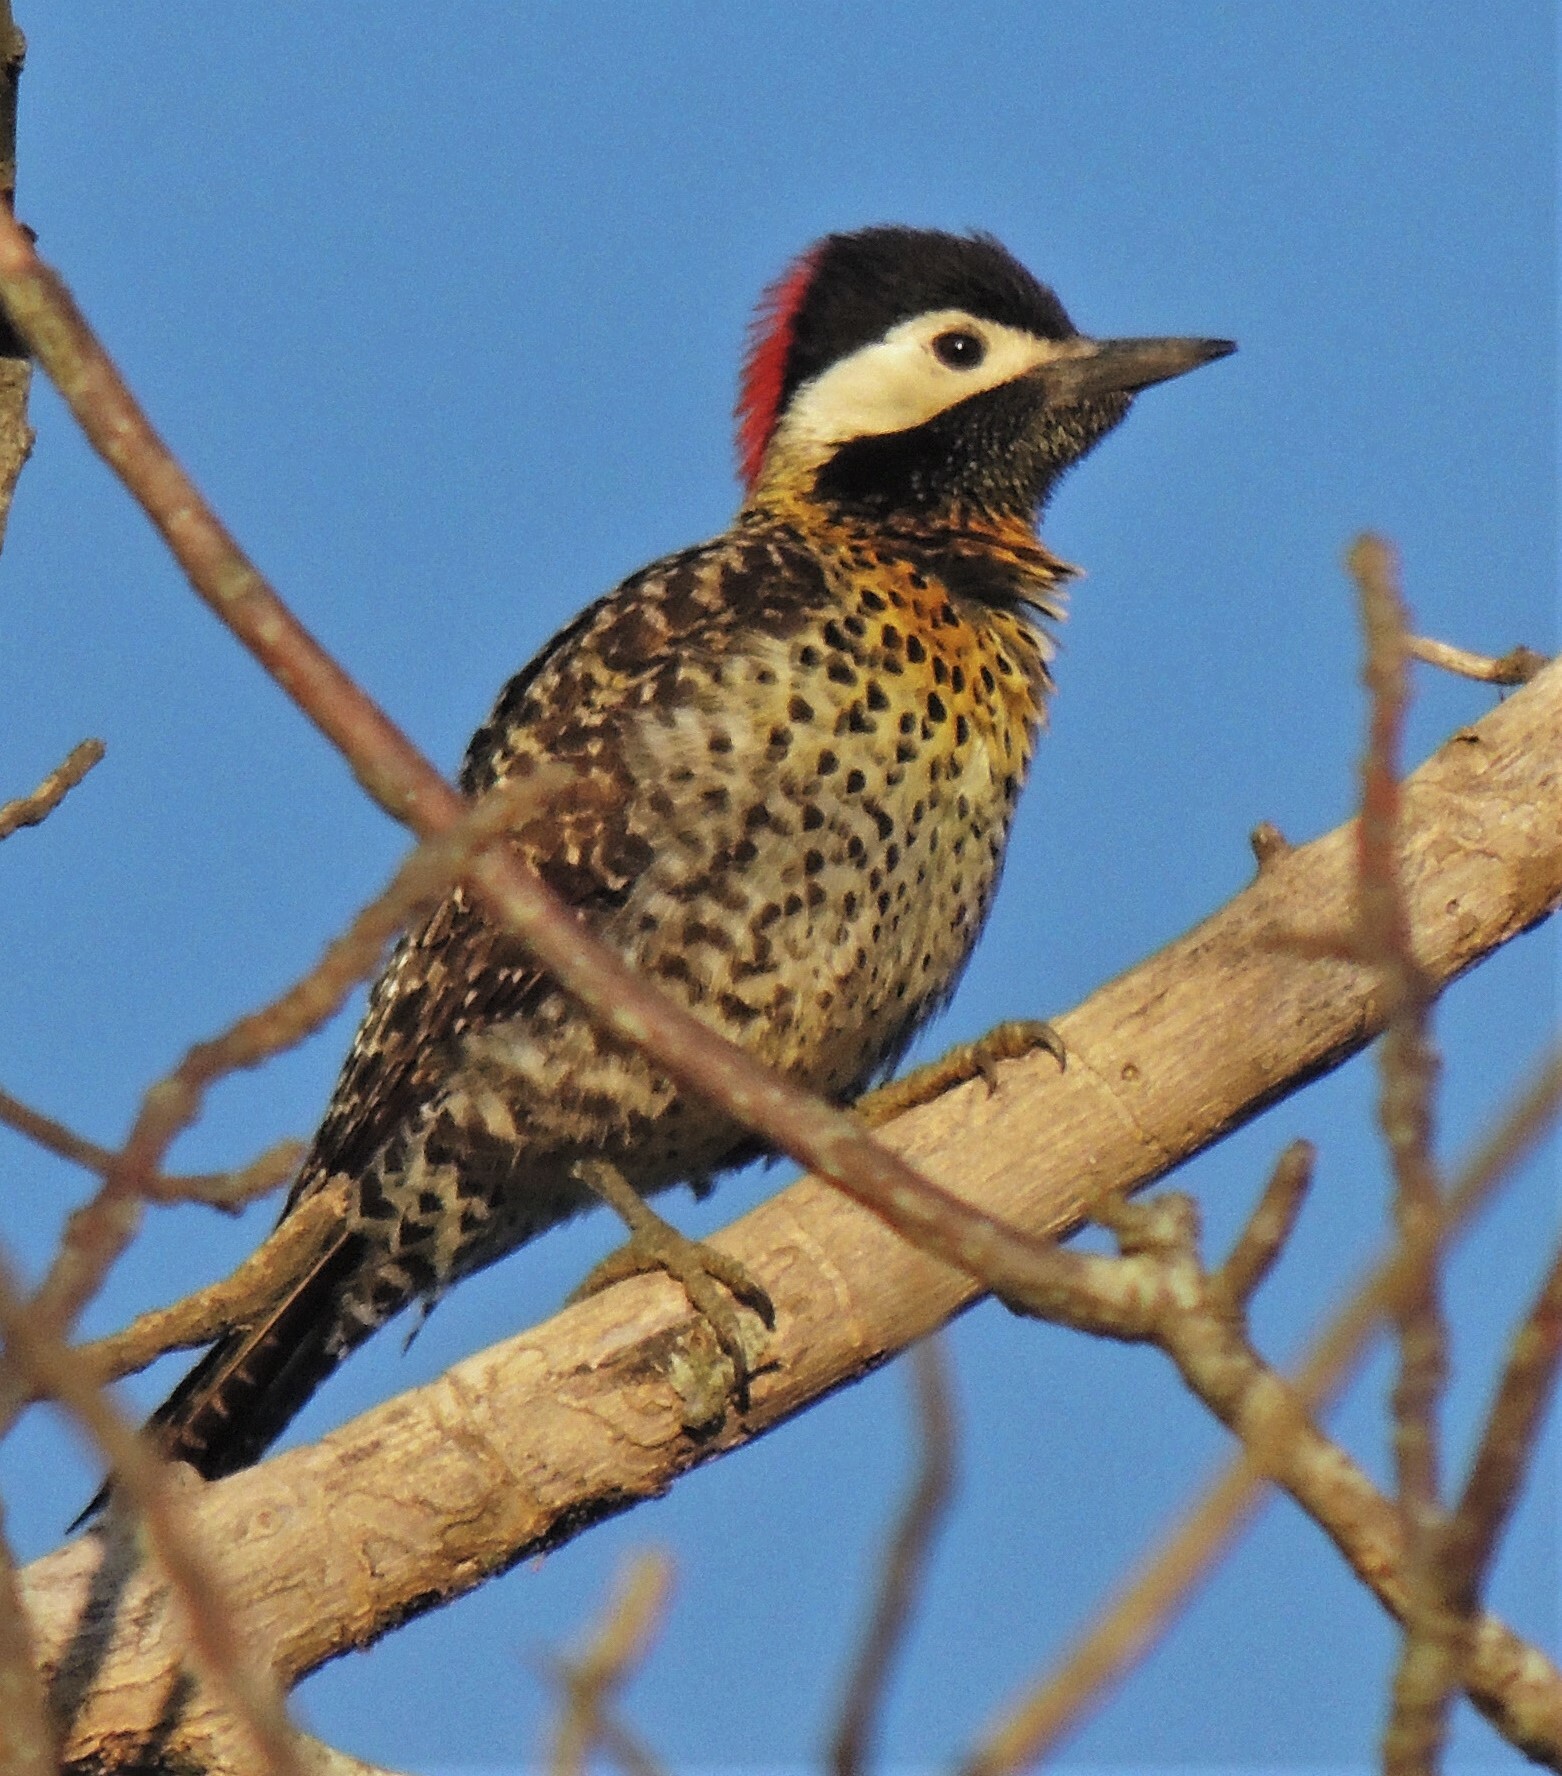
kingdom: Animalia
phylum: Chordata
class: Aves
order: Piciformes
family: Picidae
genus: Colaptes
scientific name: Colaptes melanochloros
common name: Green-barred woodpecker
